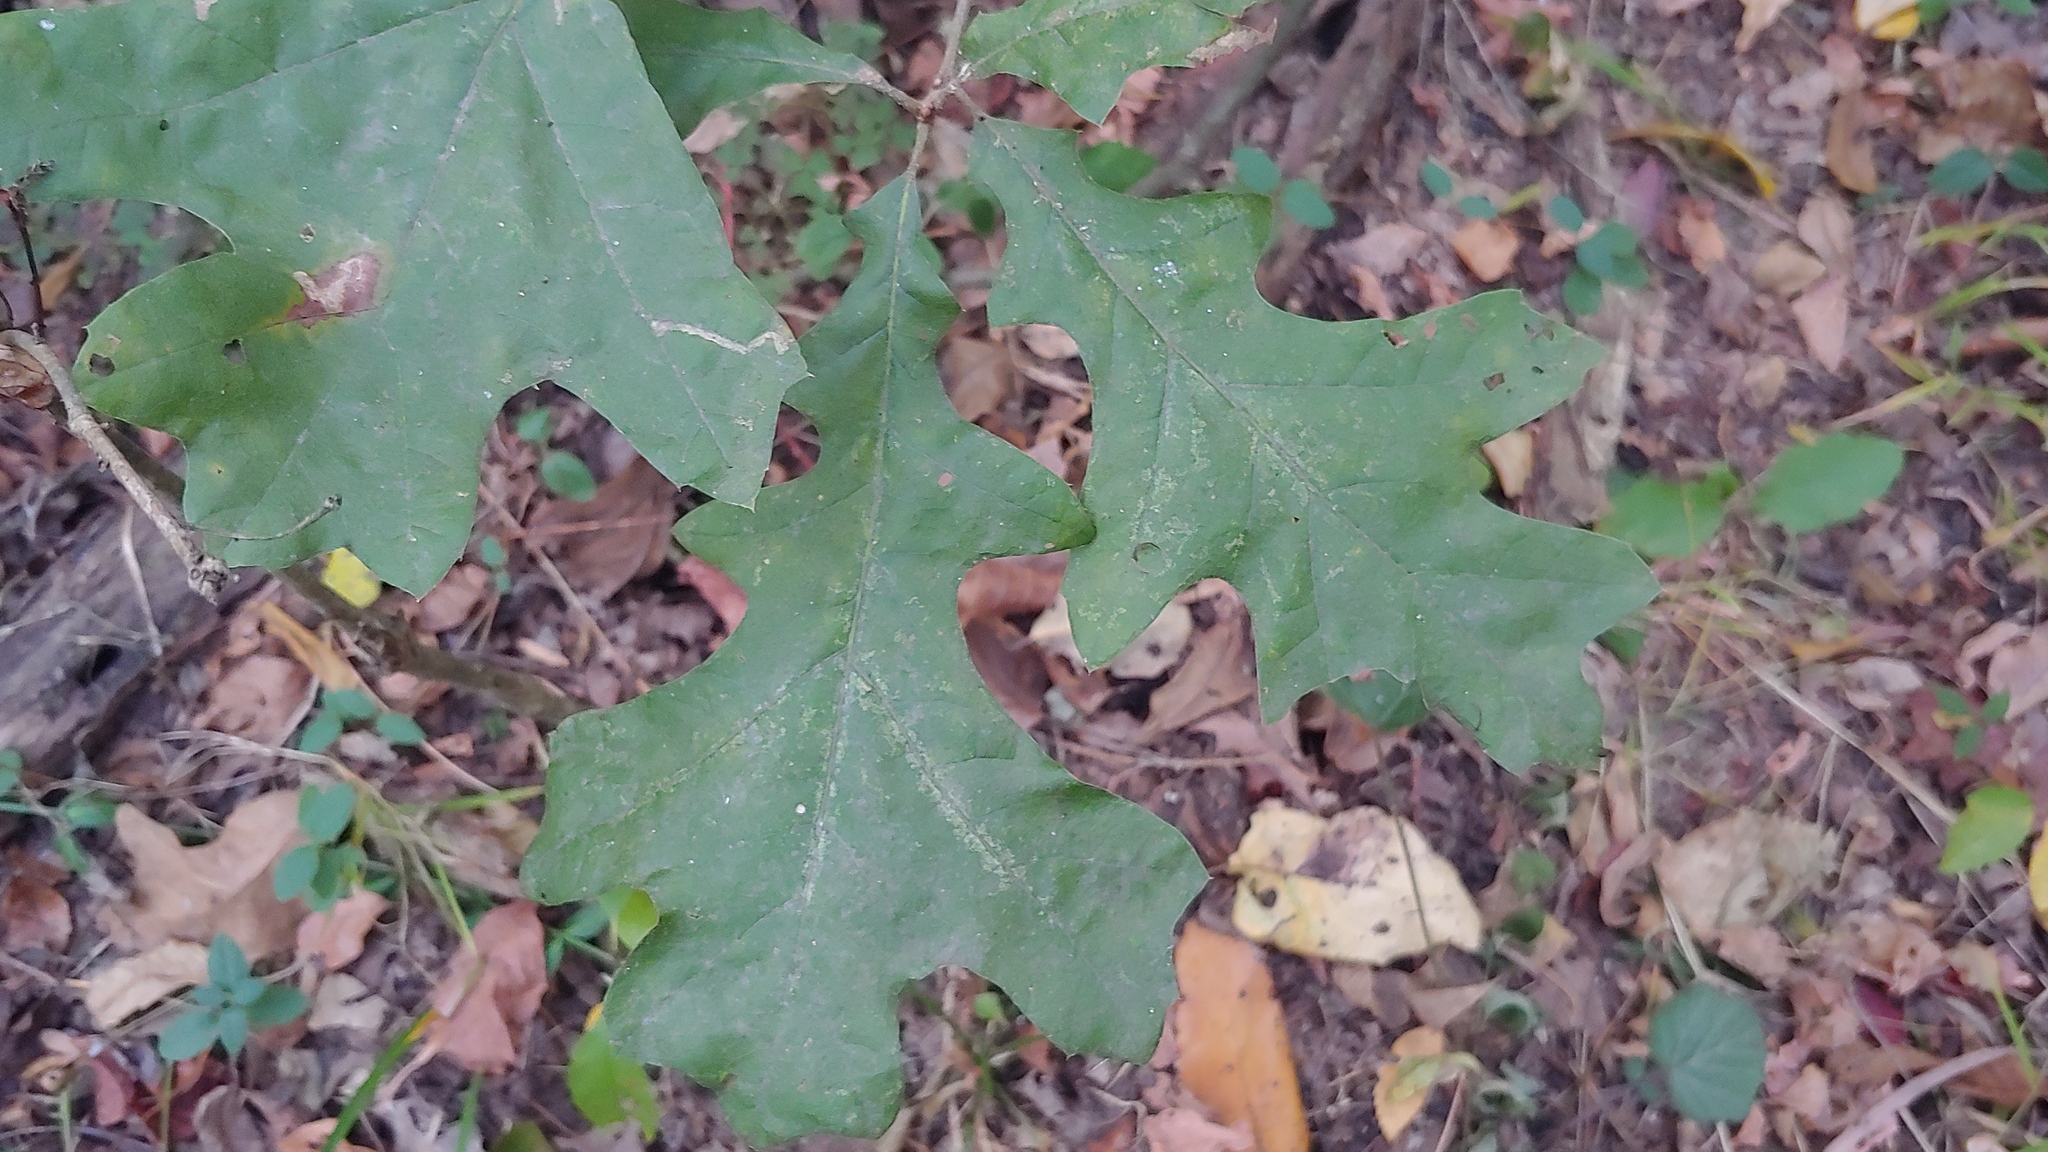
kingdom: Plantae
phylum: Tracheophyta
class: Magnoliopsida
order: Fagales
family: Fagaceae
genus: Quercus
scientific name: Quercus velutina
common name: Black oak
